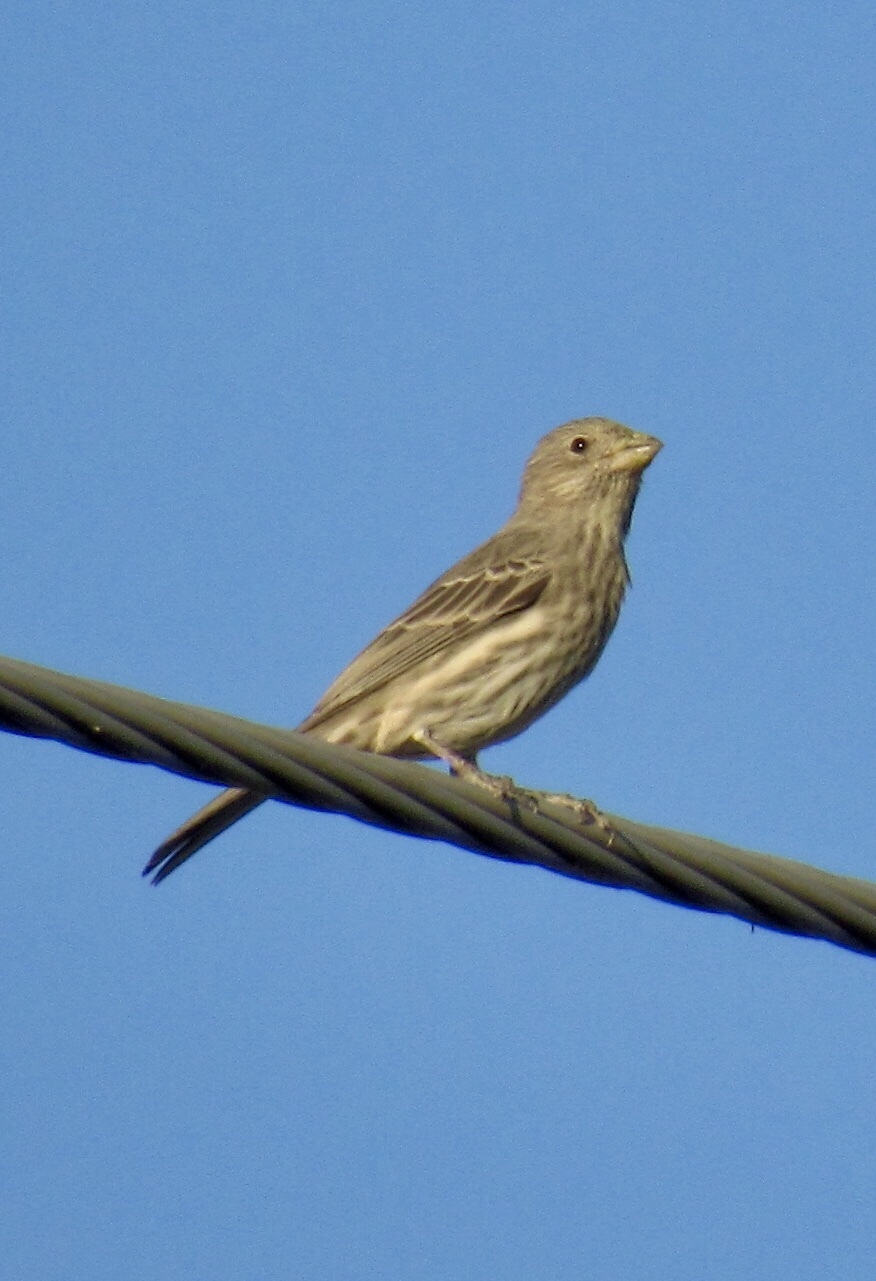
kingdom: Animalia
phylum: Chordata
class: Aves
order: Passeriformes
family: Fringillidae
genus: Haemorhous
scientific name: Haemorhous mexicanus
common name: House finch
